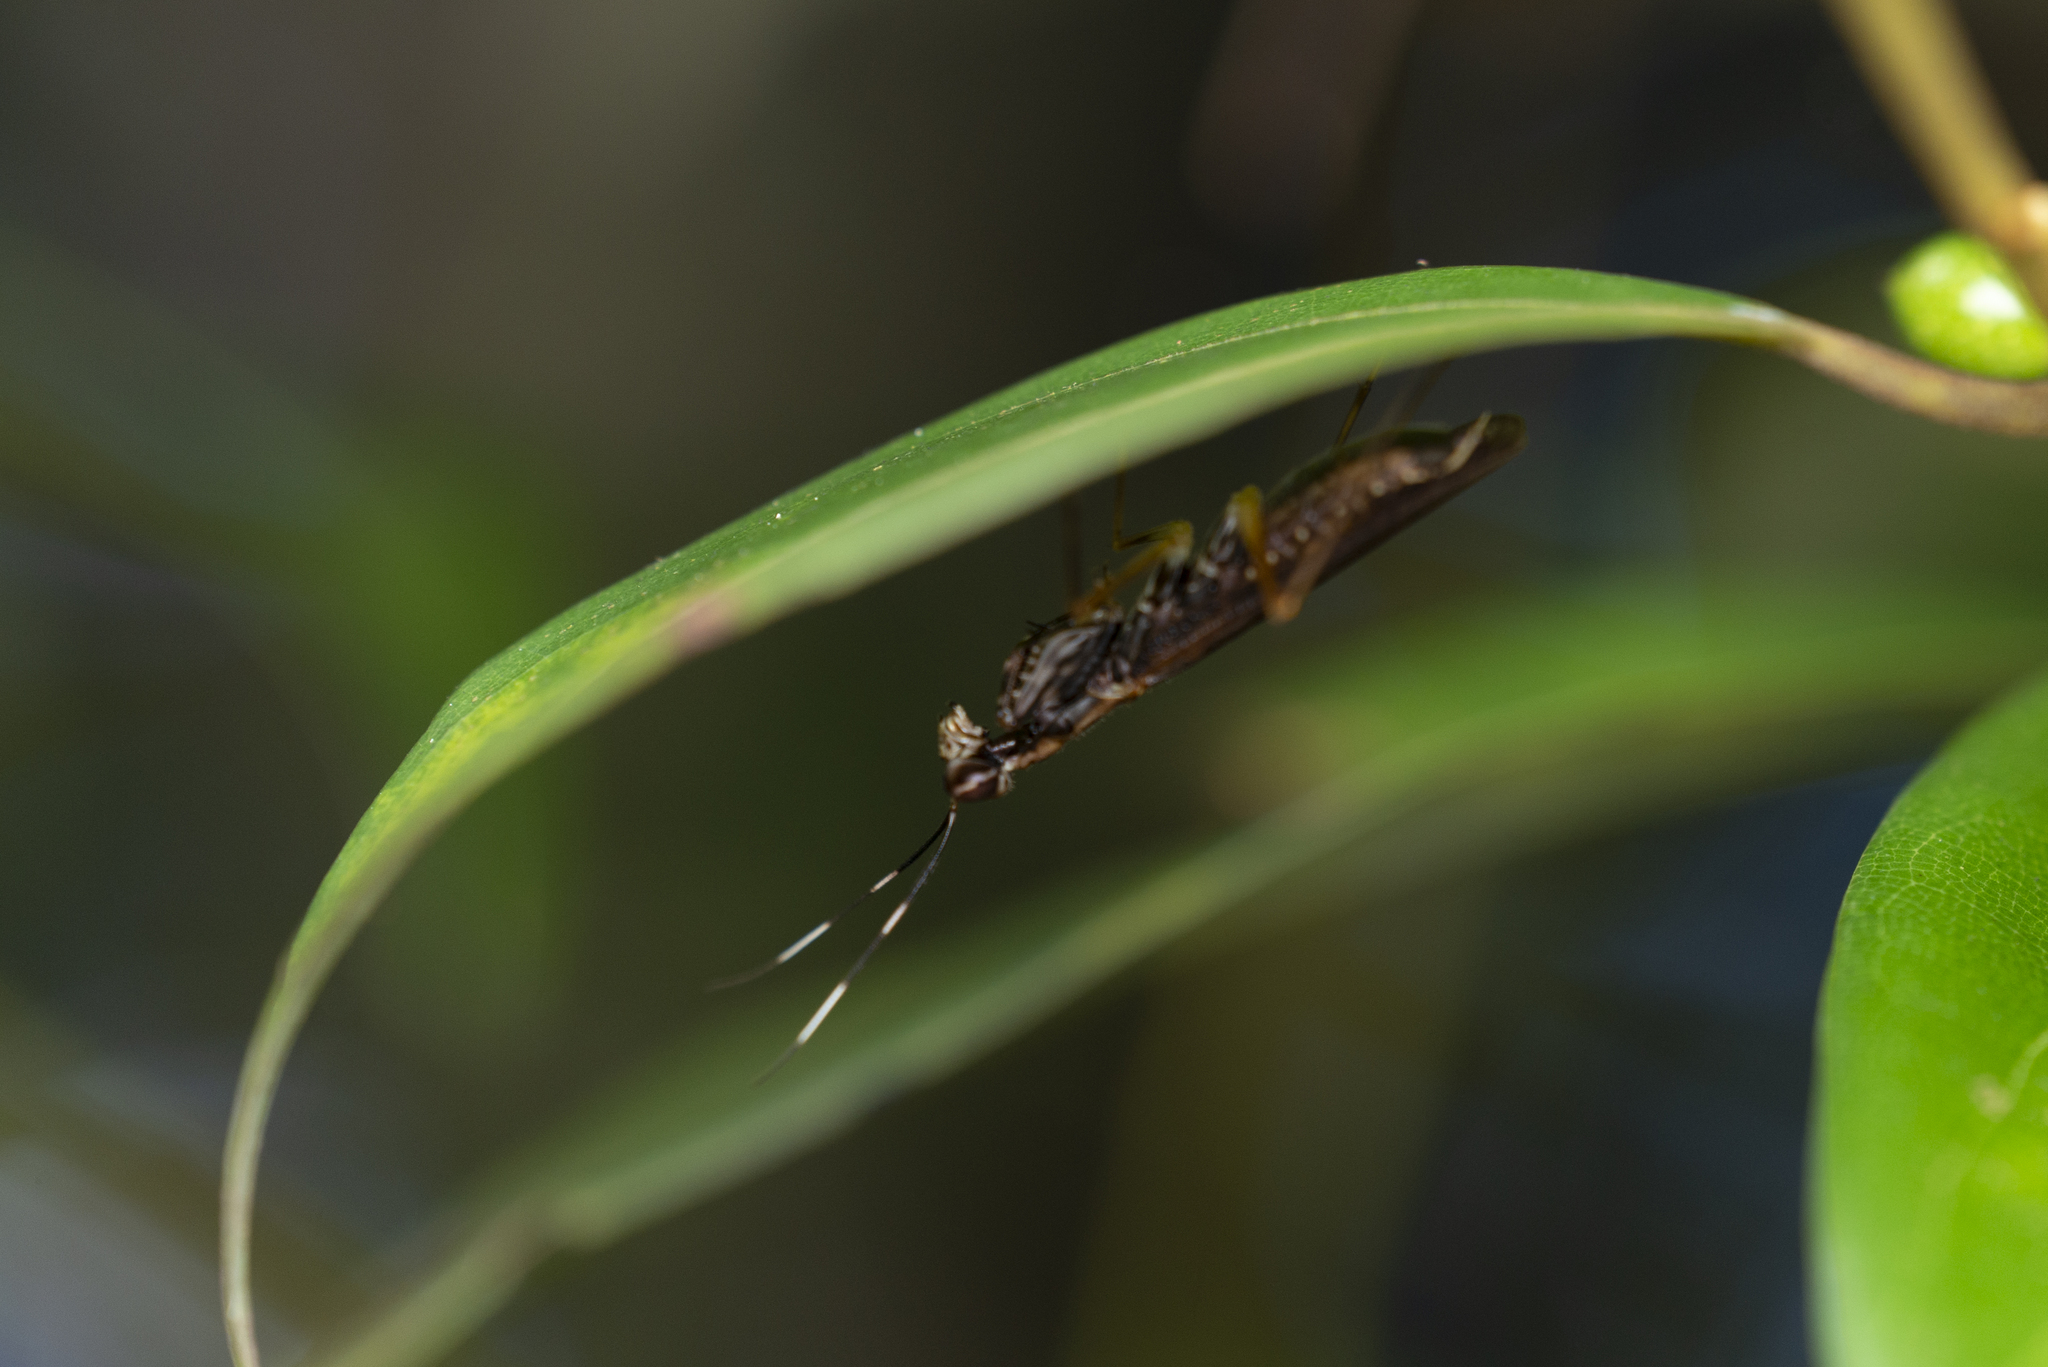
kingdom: Animalia
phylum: Arthropoda
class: Insecta
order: Mantodea
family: Gonypetidae
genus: Spilomantis
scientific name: Spilomantis occipitalis
